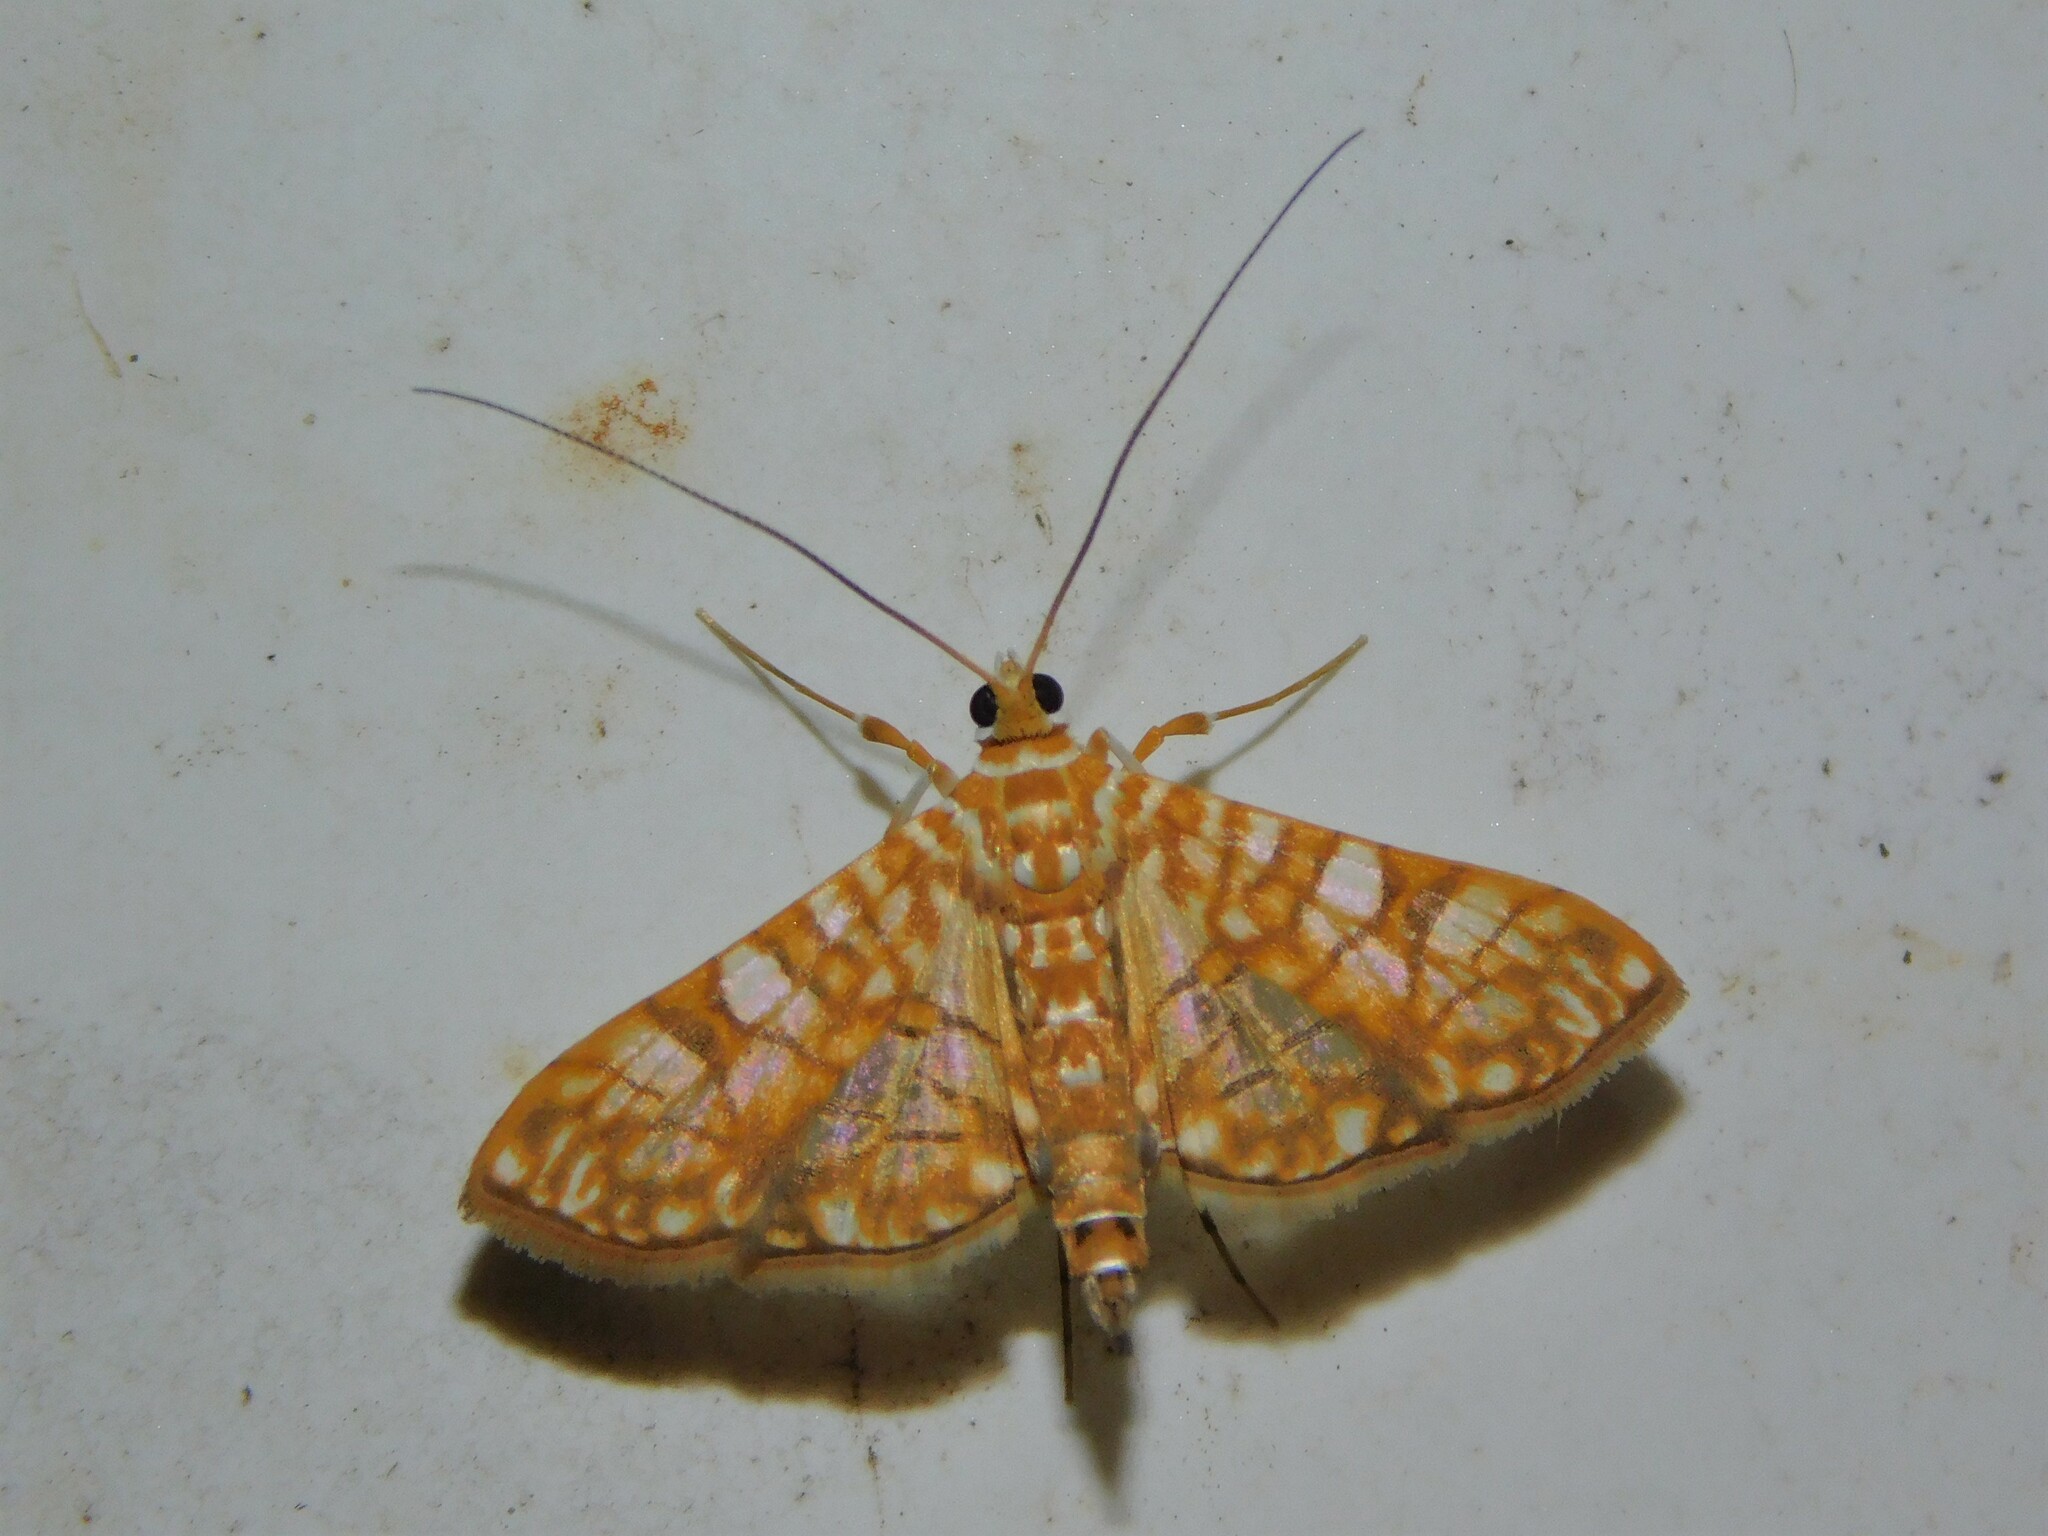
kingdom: Animalia
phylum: Arthropoda
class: Insecta
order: Lepidoptera
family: Crambidae
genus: Synclera
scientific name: Synclera traducalis
